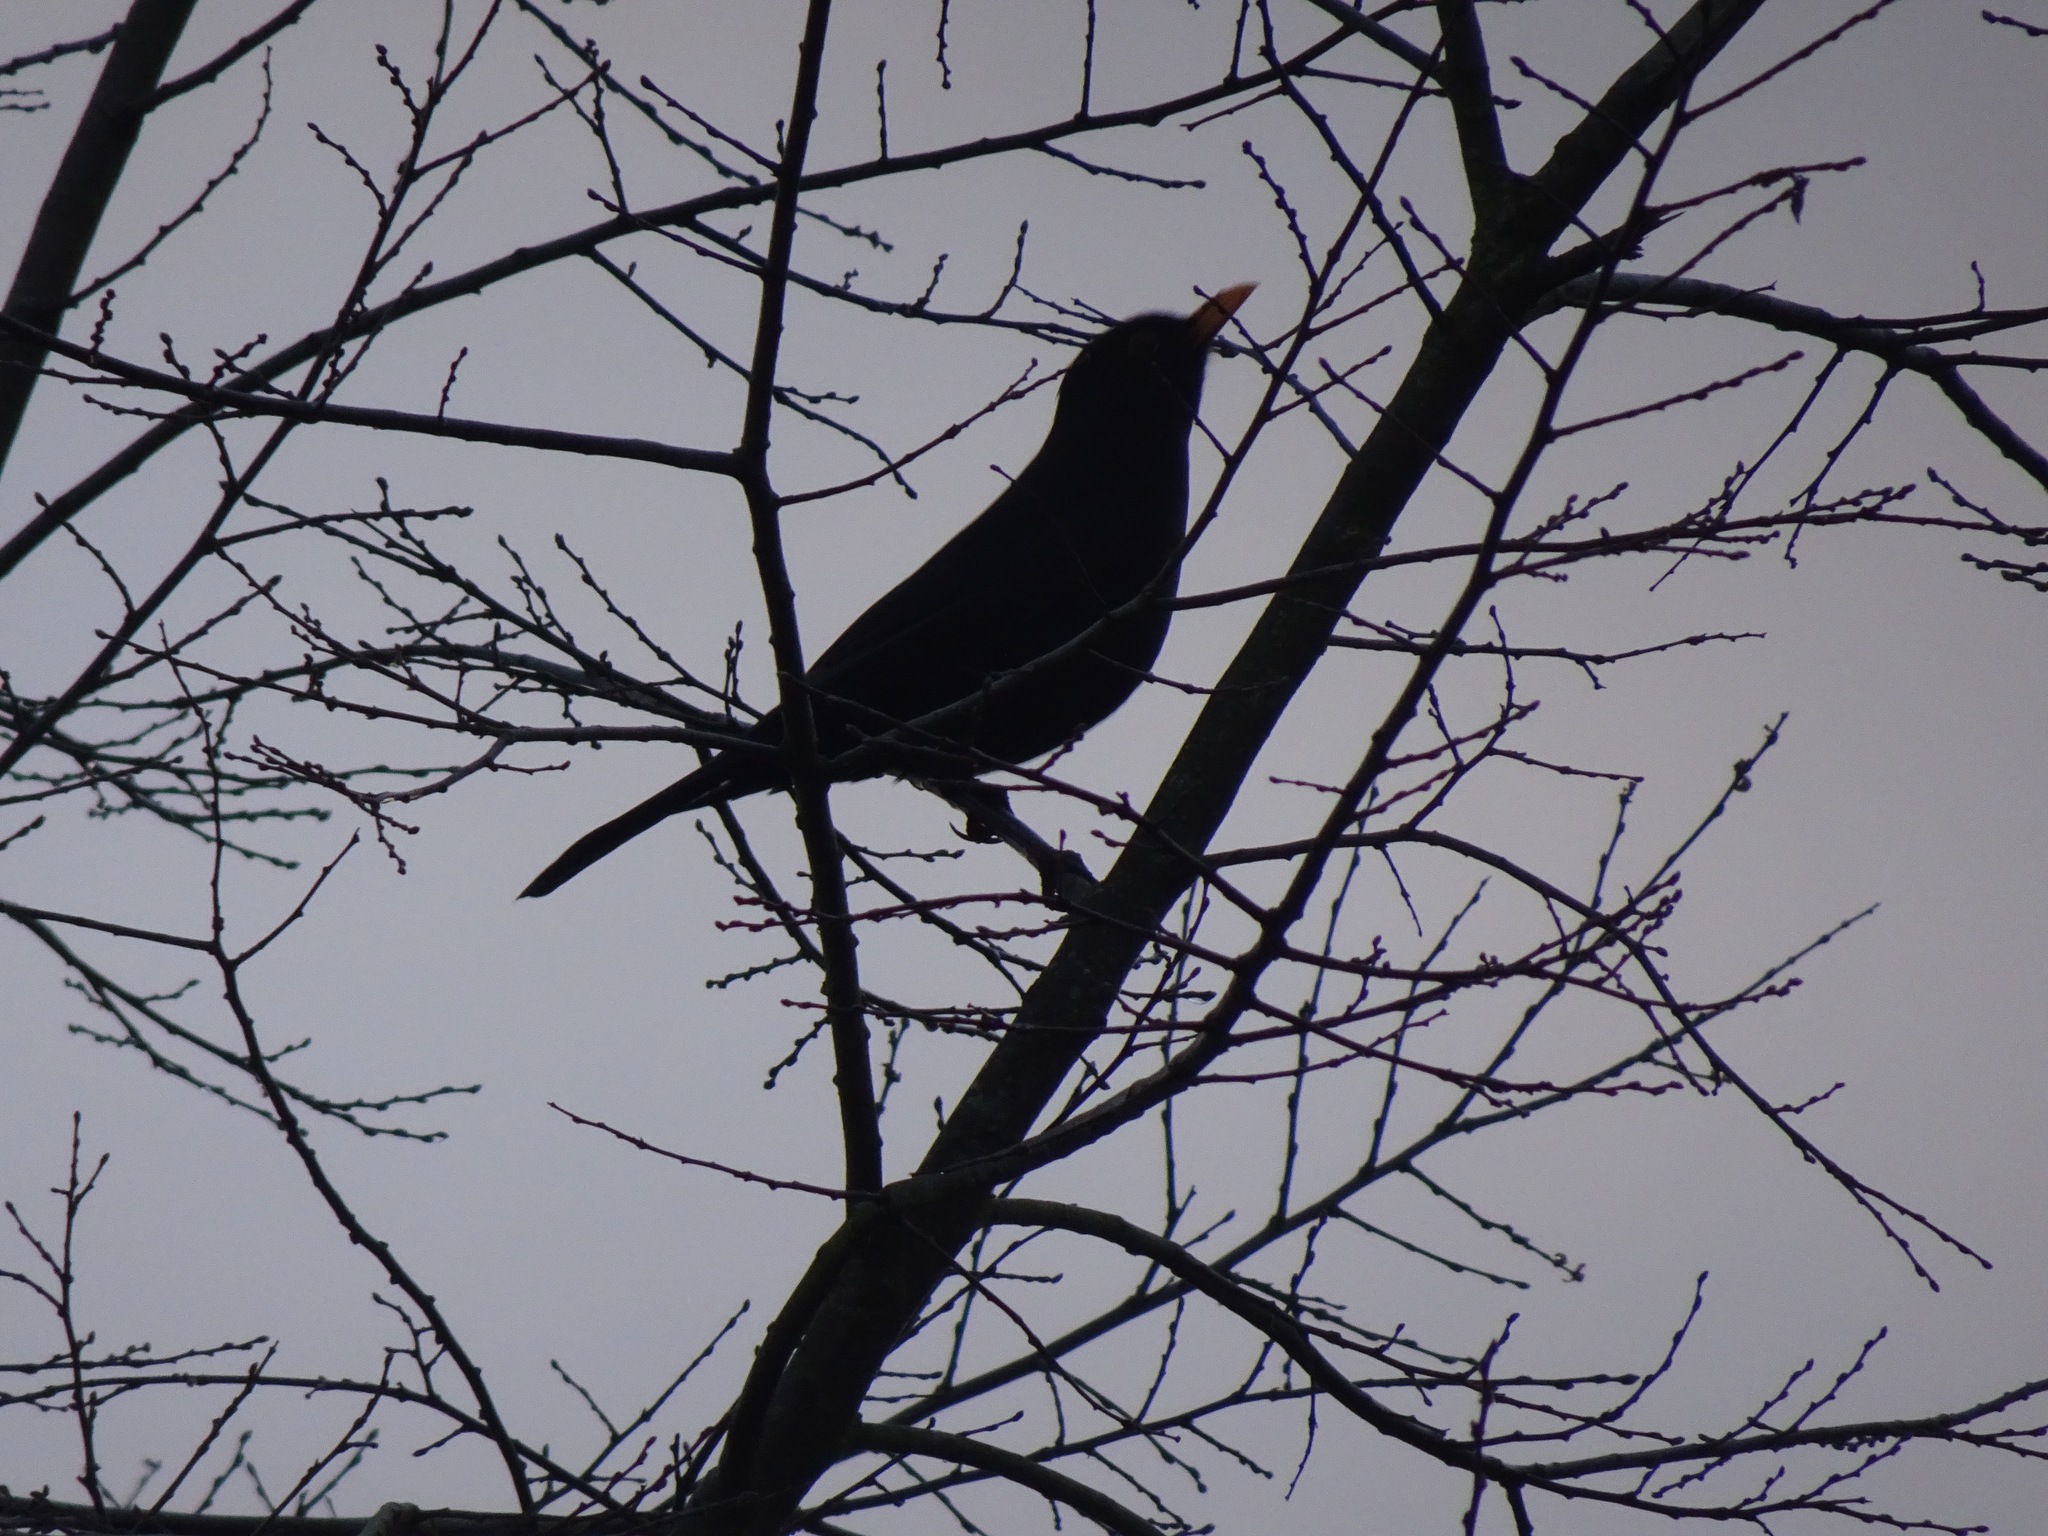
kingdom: Animalia
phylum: Chordata
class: Aves
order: Passeriformes
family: Turdidae
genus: Turdus
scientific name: Turdus merula
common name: Common blackbird
